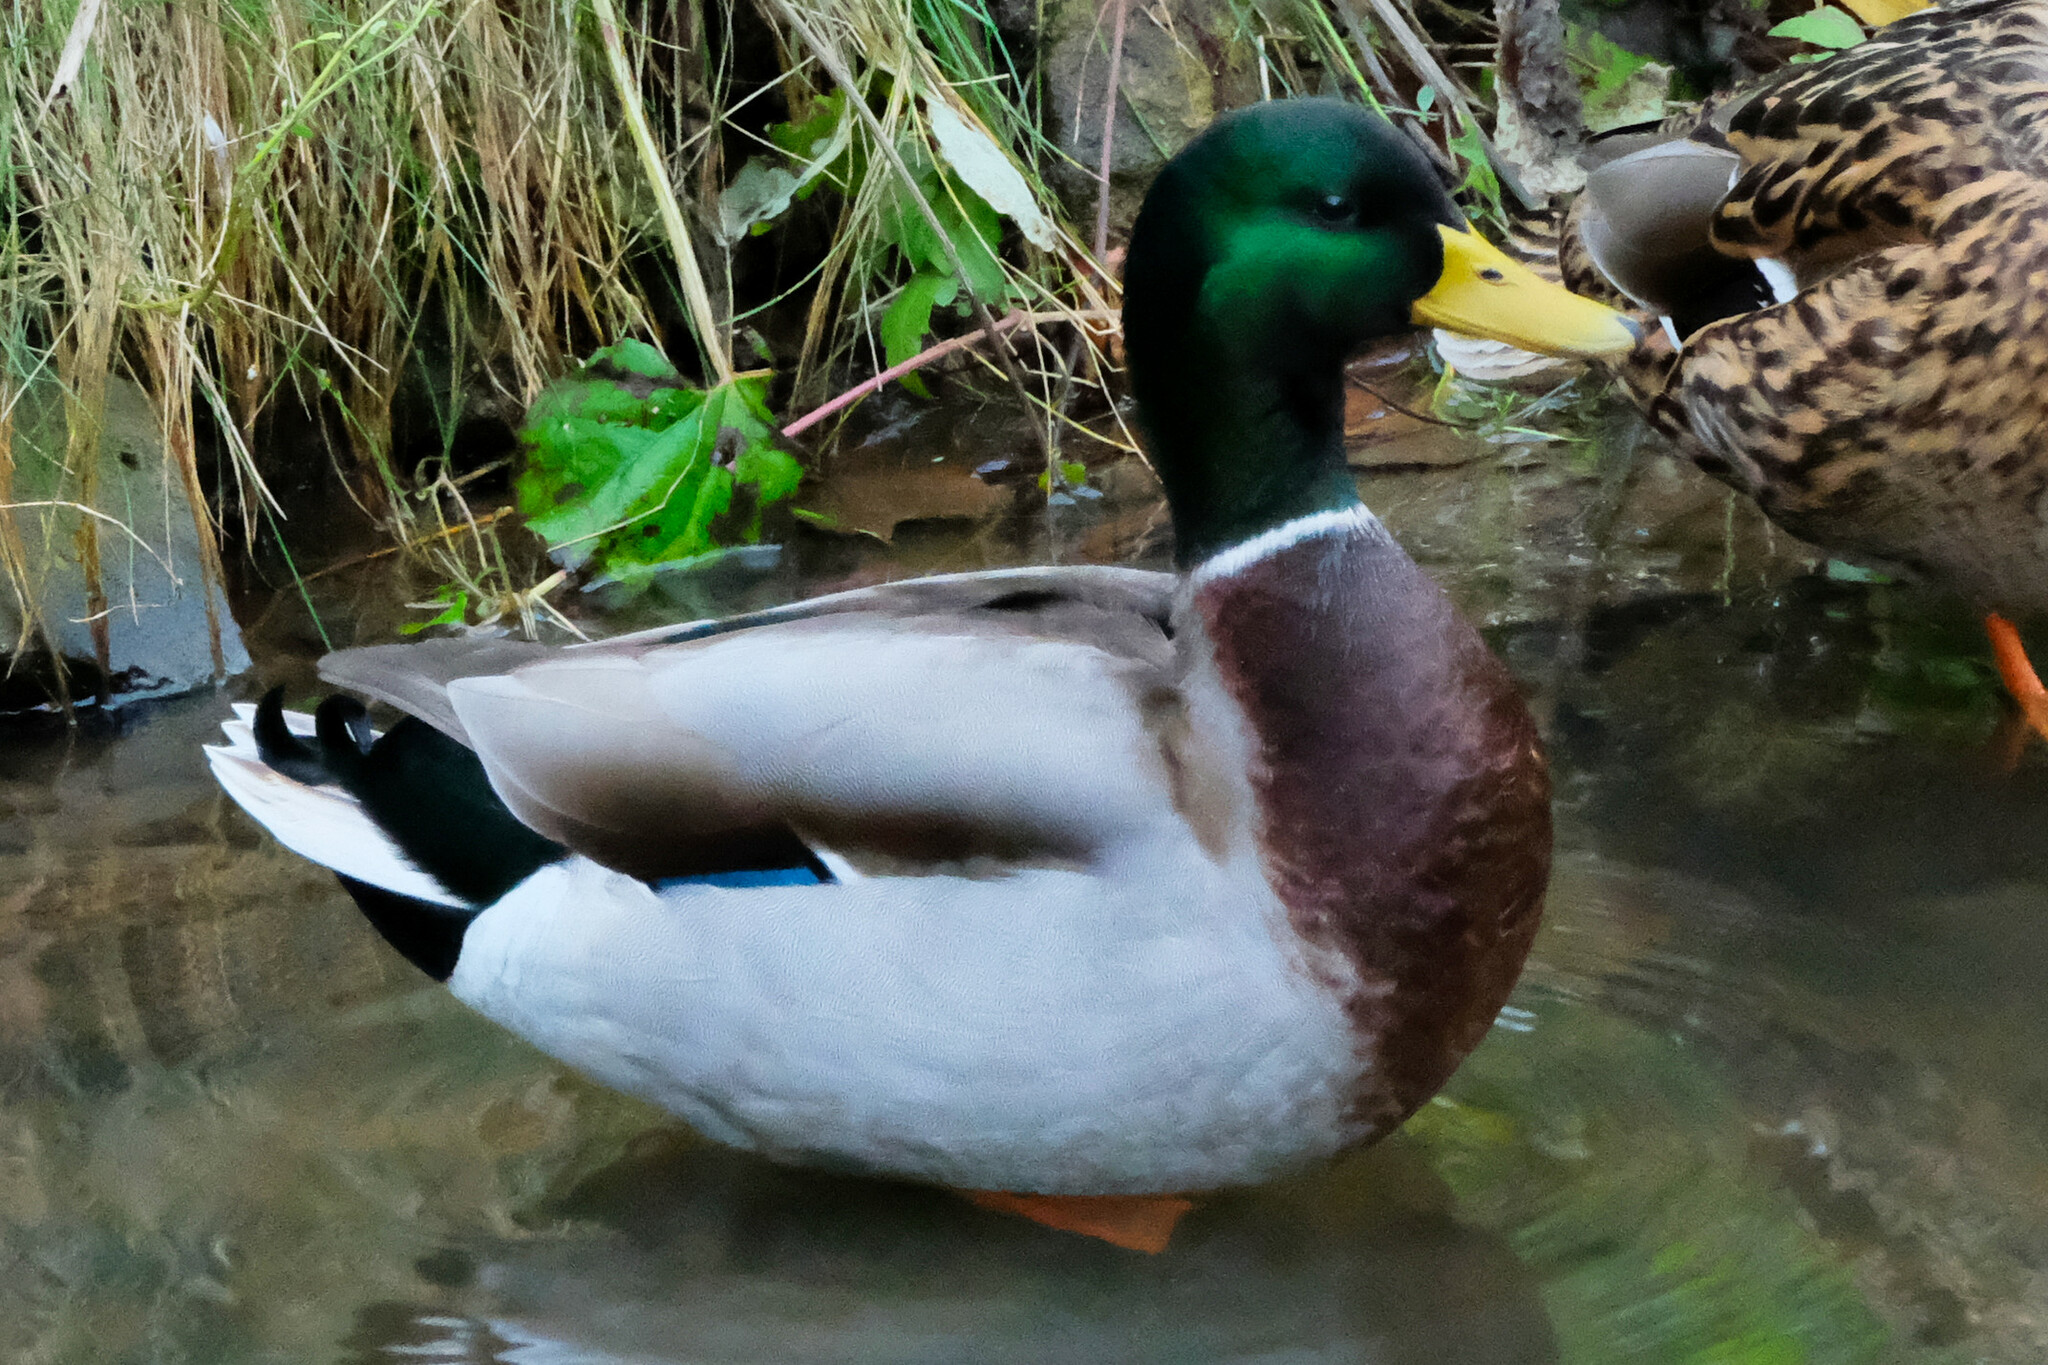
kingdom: Animalia
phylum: Chordata
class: Aves
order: Anseriformes
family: Anatidae
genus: Anas
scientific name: Anas platyrhynchos
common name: Mallard
